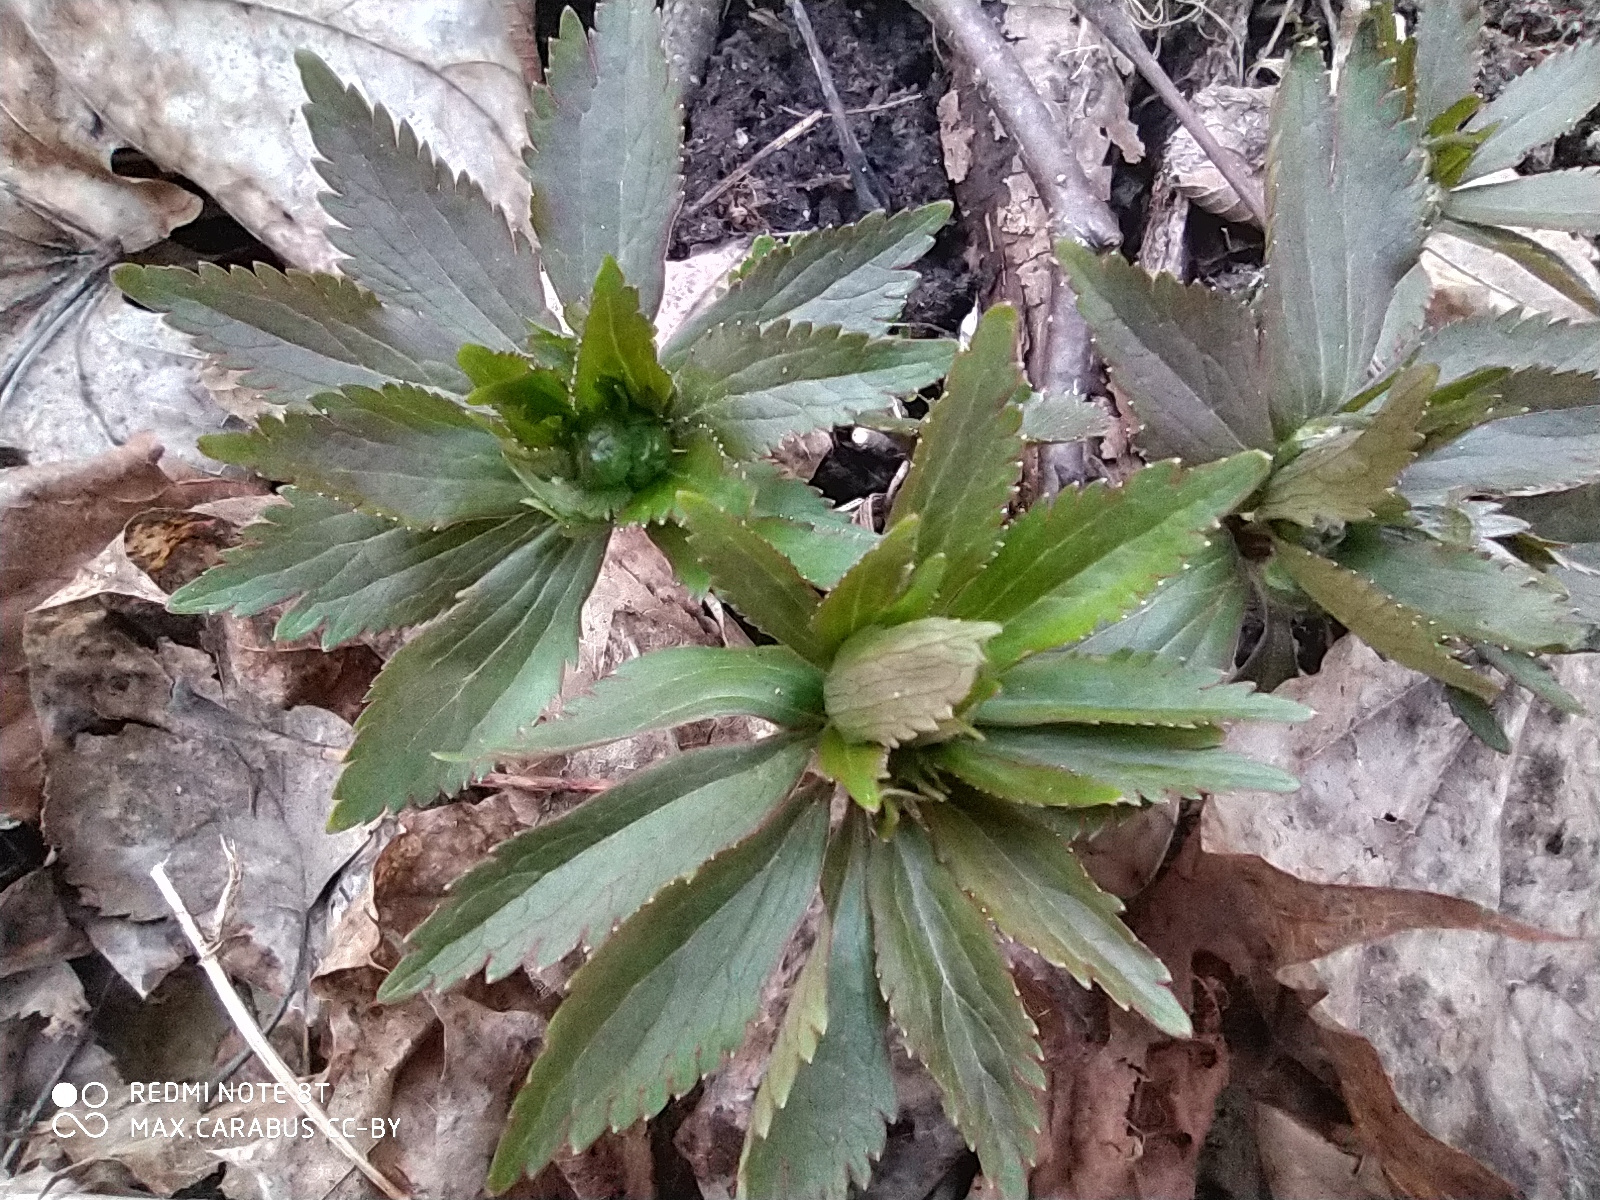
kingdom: Plantae
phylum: Tracheophyta
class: Magnoliopsida
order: Ranunculales
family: Ranunculaceae
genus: Ranunculus
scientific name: Ranunculus cassubicus
